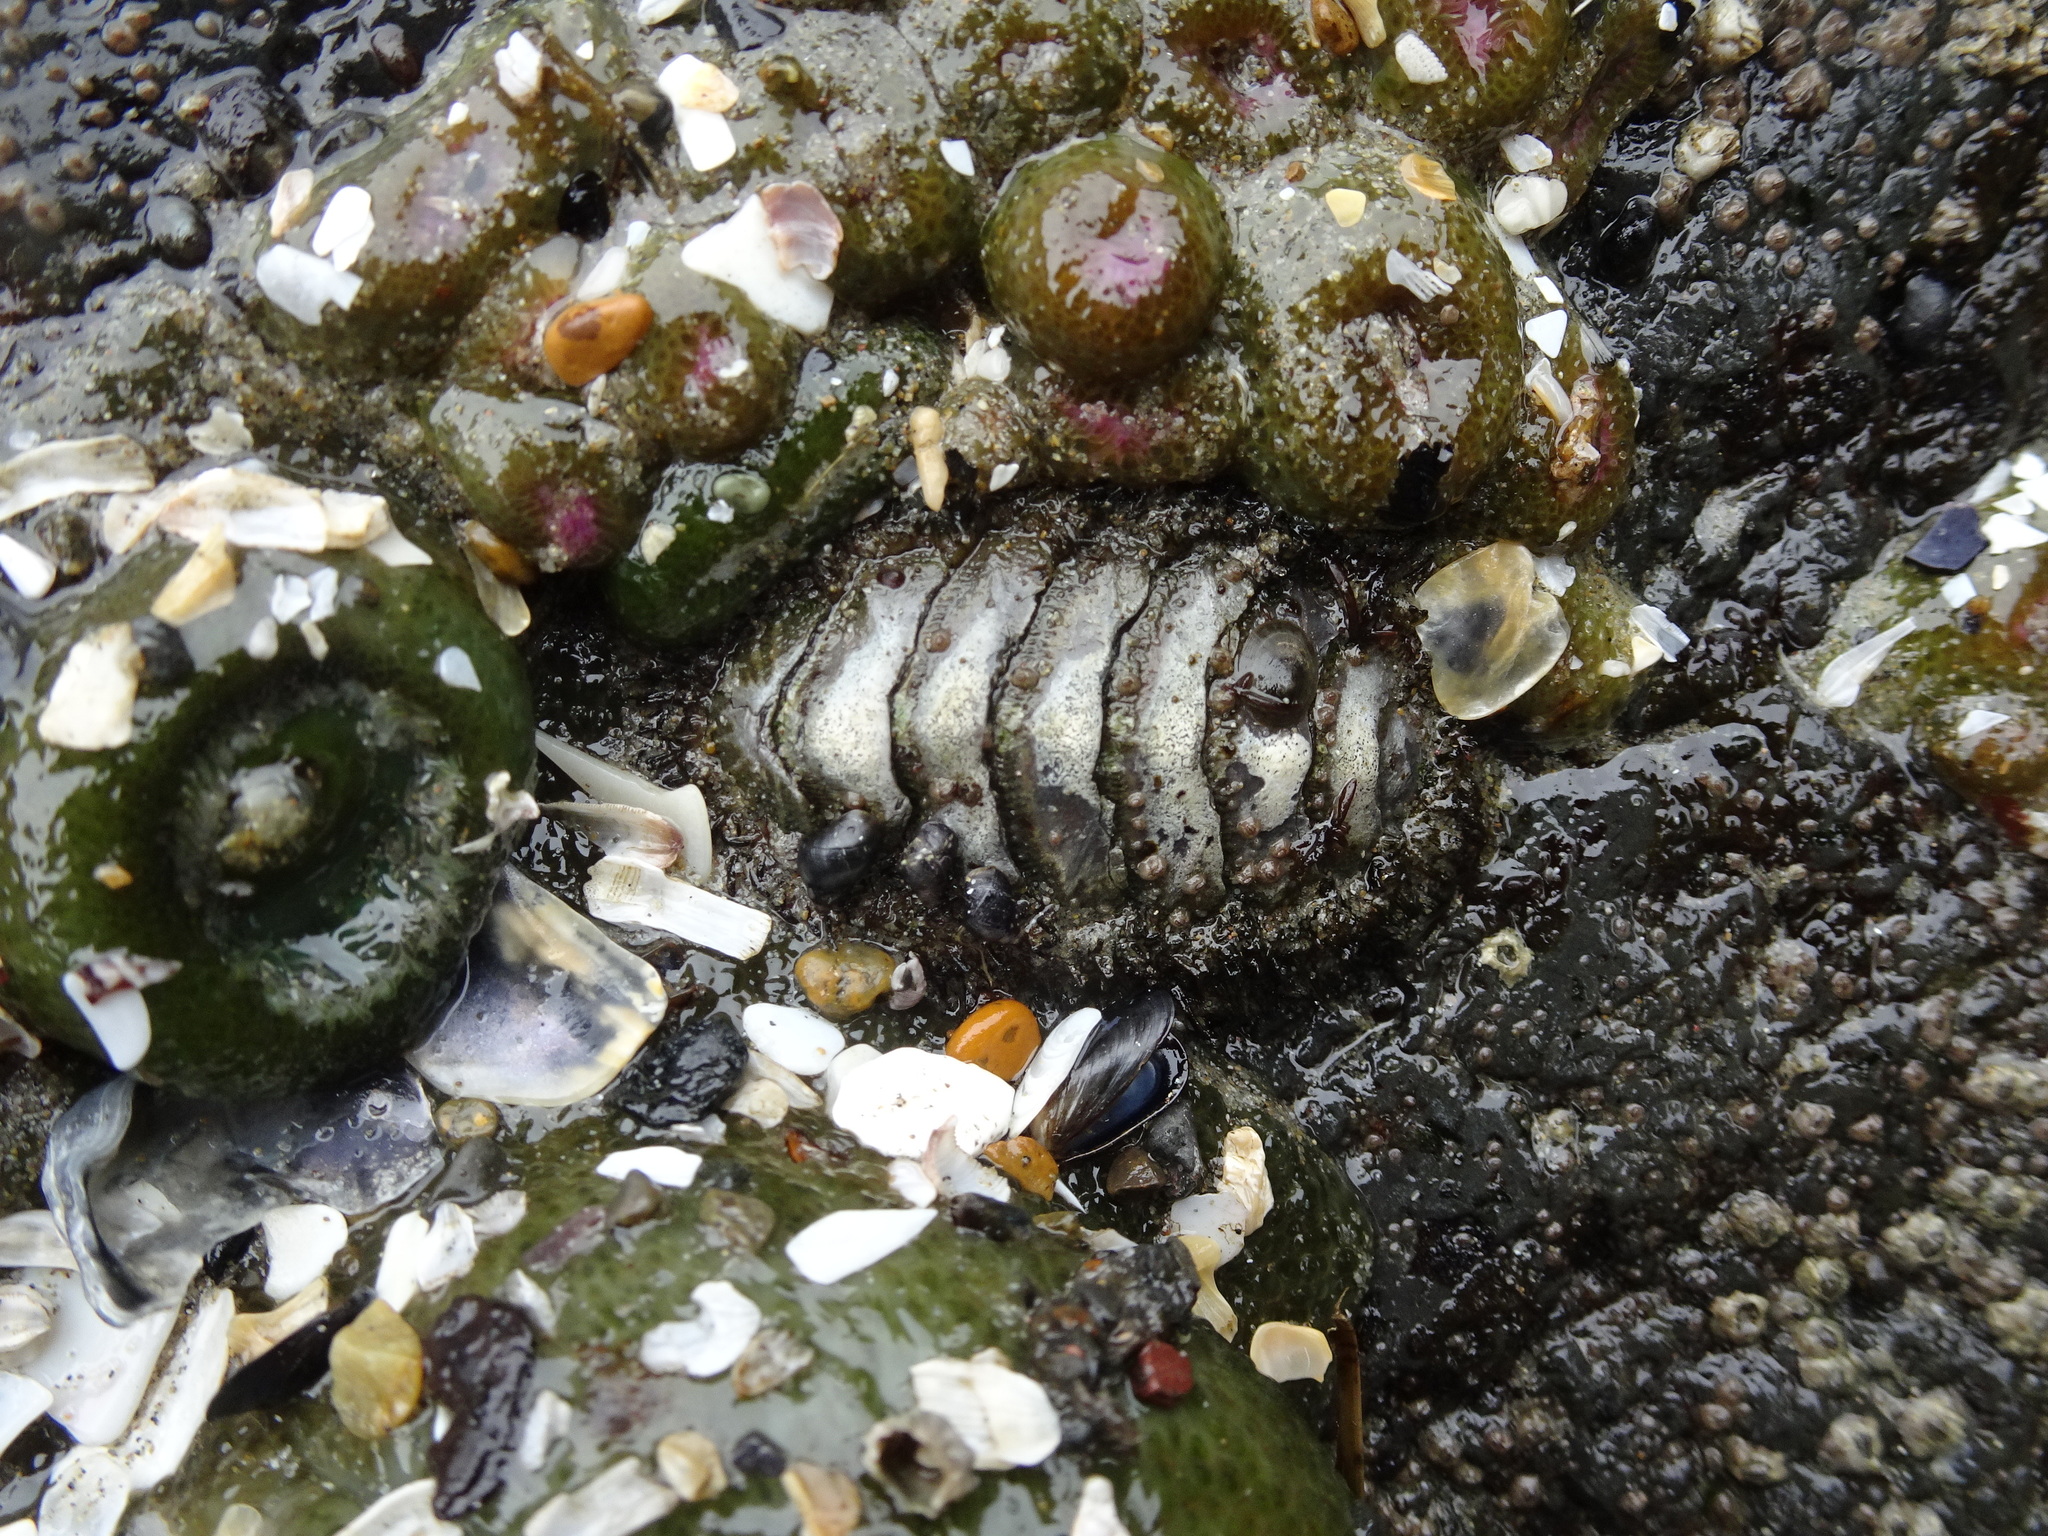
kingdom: Animalia
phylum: Mollusca
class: Polyplacophora
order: Chitonida
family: Mopaliidae
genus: Mopalia
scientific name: Mopalia muscosa
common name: Mossy chiton
